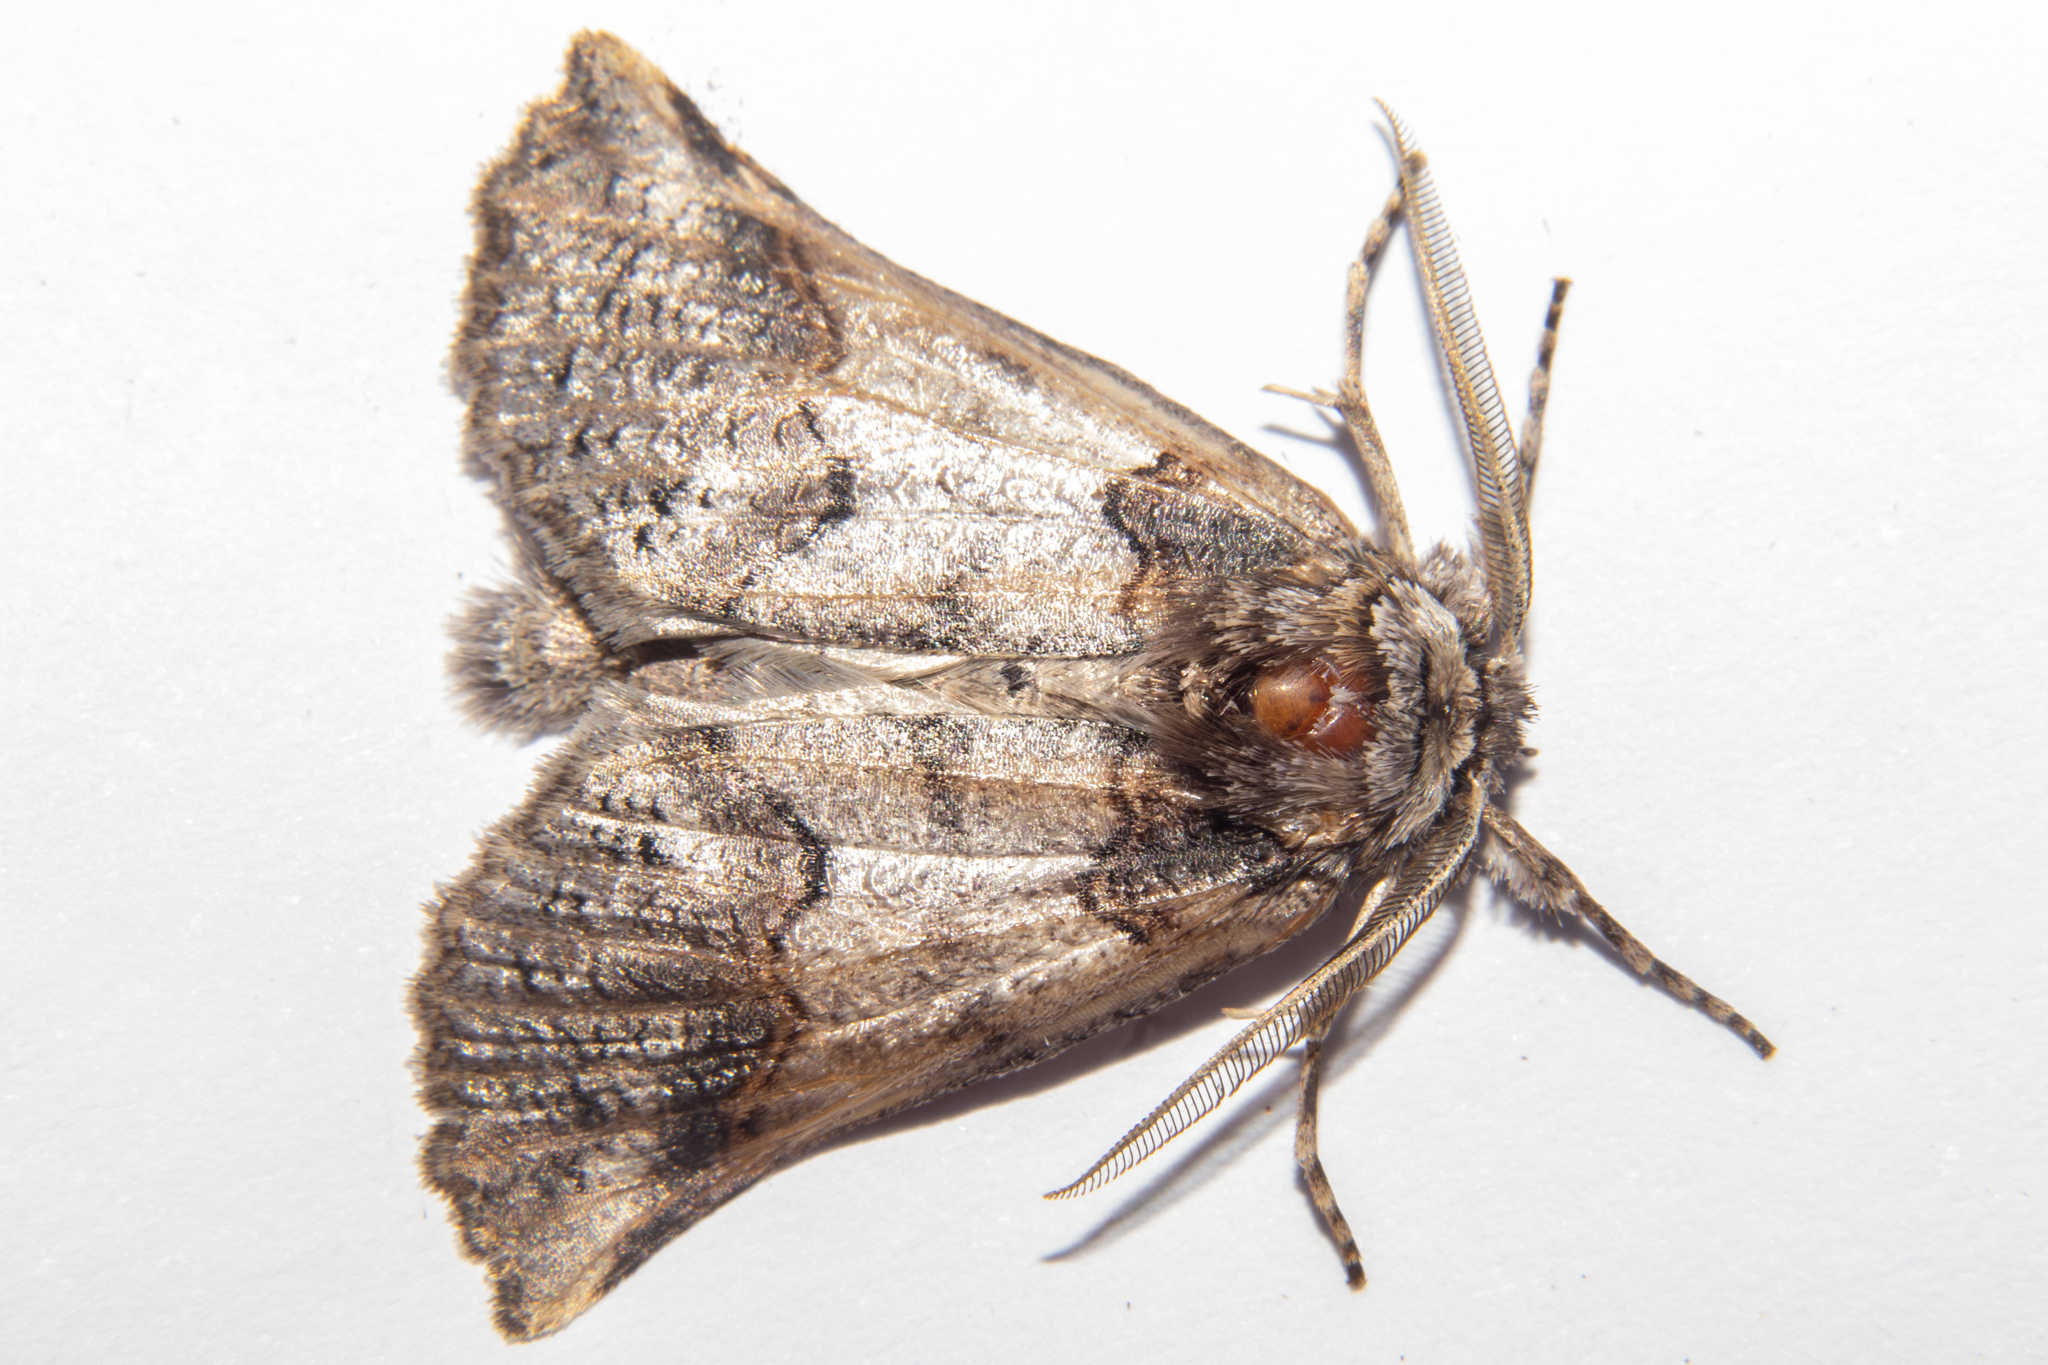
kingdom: Animalia
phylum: Arthropoda
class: Insecta
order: Lepidoptera
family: Geometridae
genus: Declana
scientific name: Declana
